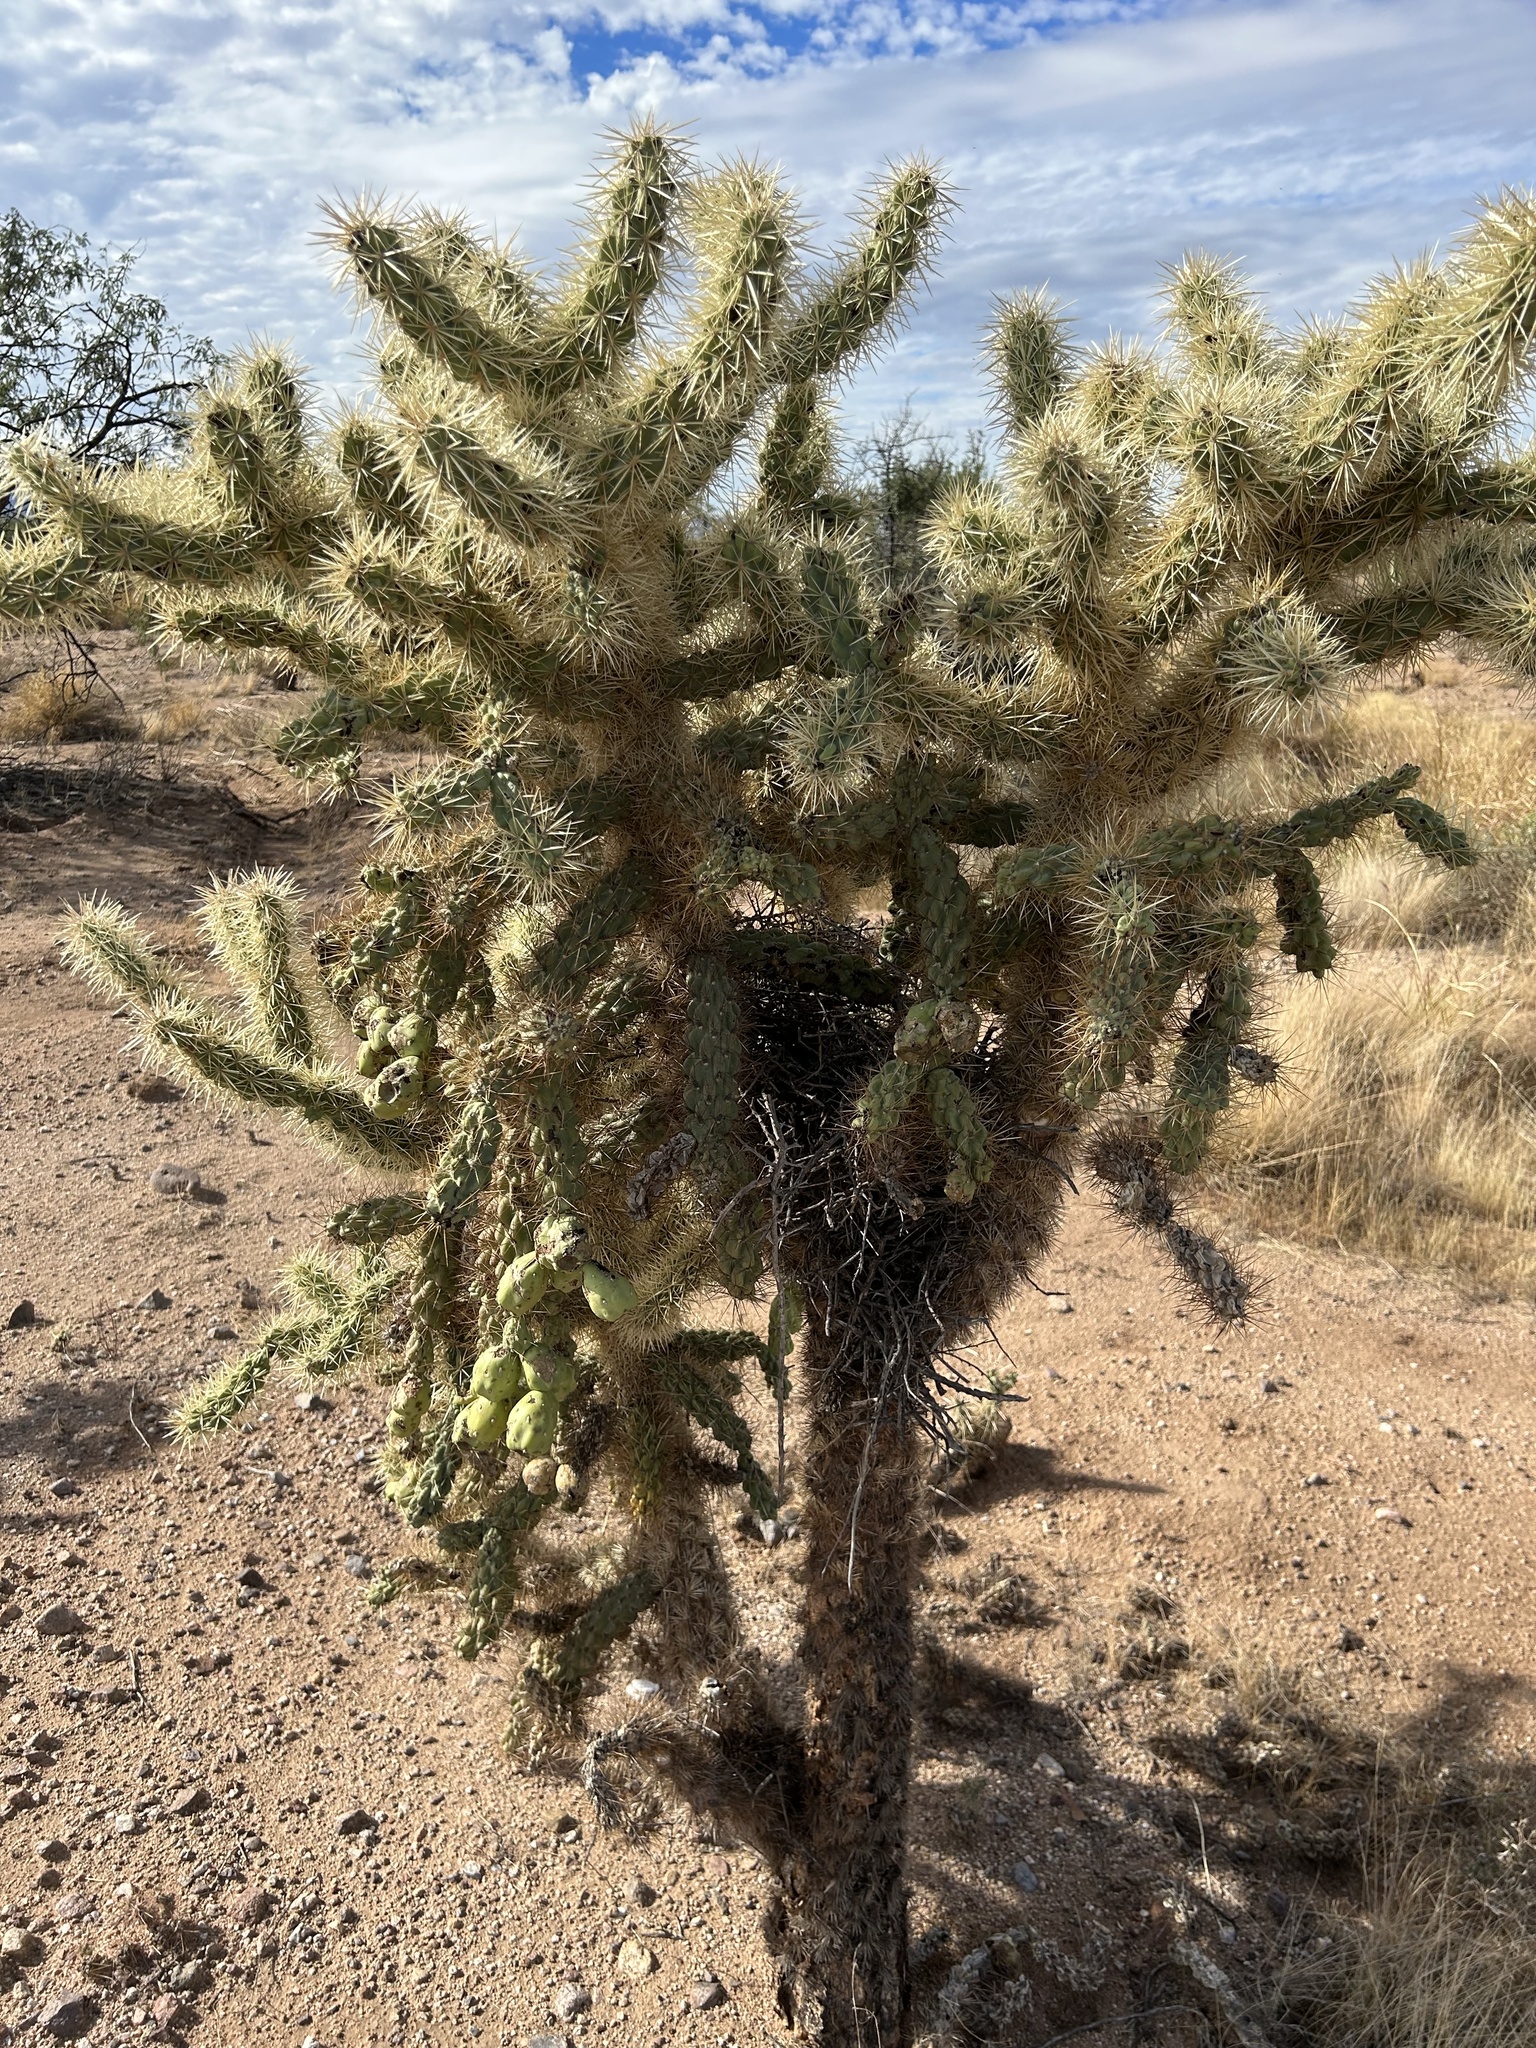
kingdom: Plantae
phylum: Tracheophyta
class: Magnoliopsida
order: Caryophyllales
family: Cactaceae
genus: Cylindropuntia
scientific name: Cylindropuntia fulgida
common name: Jumping cholla
